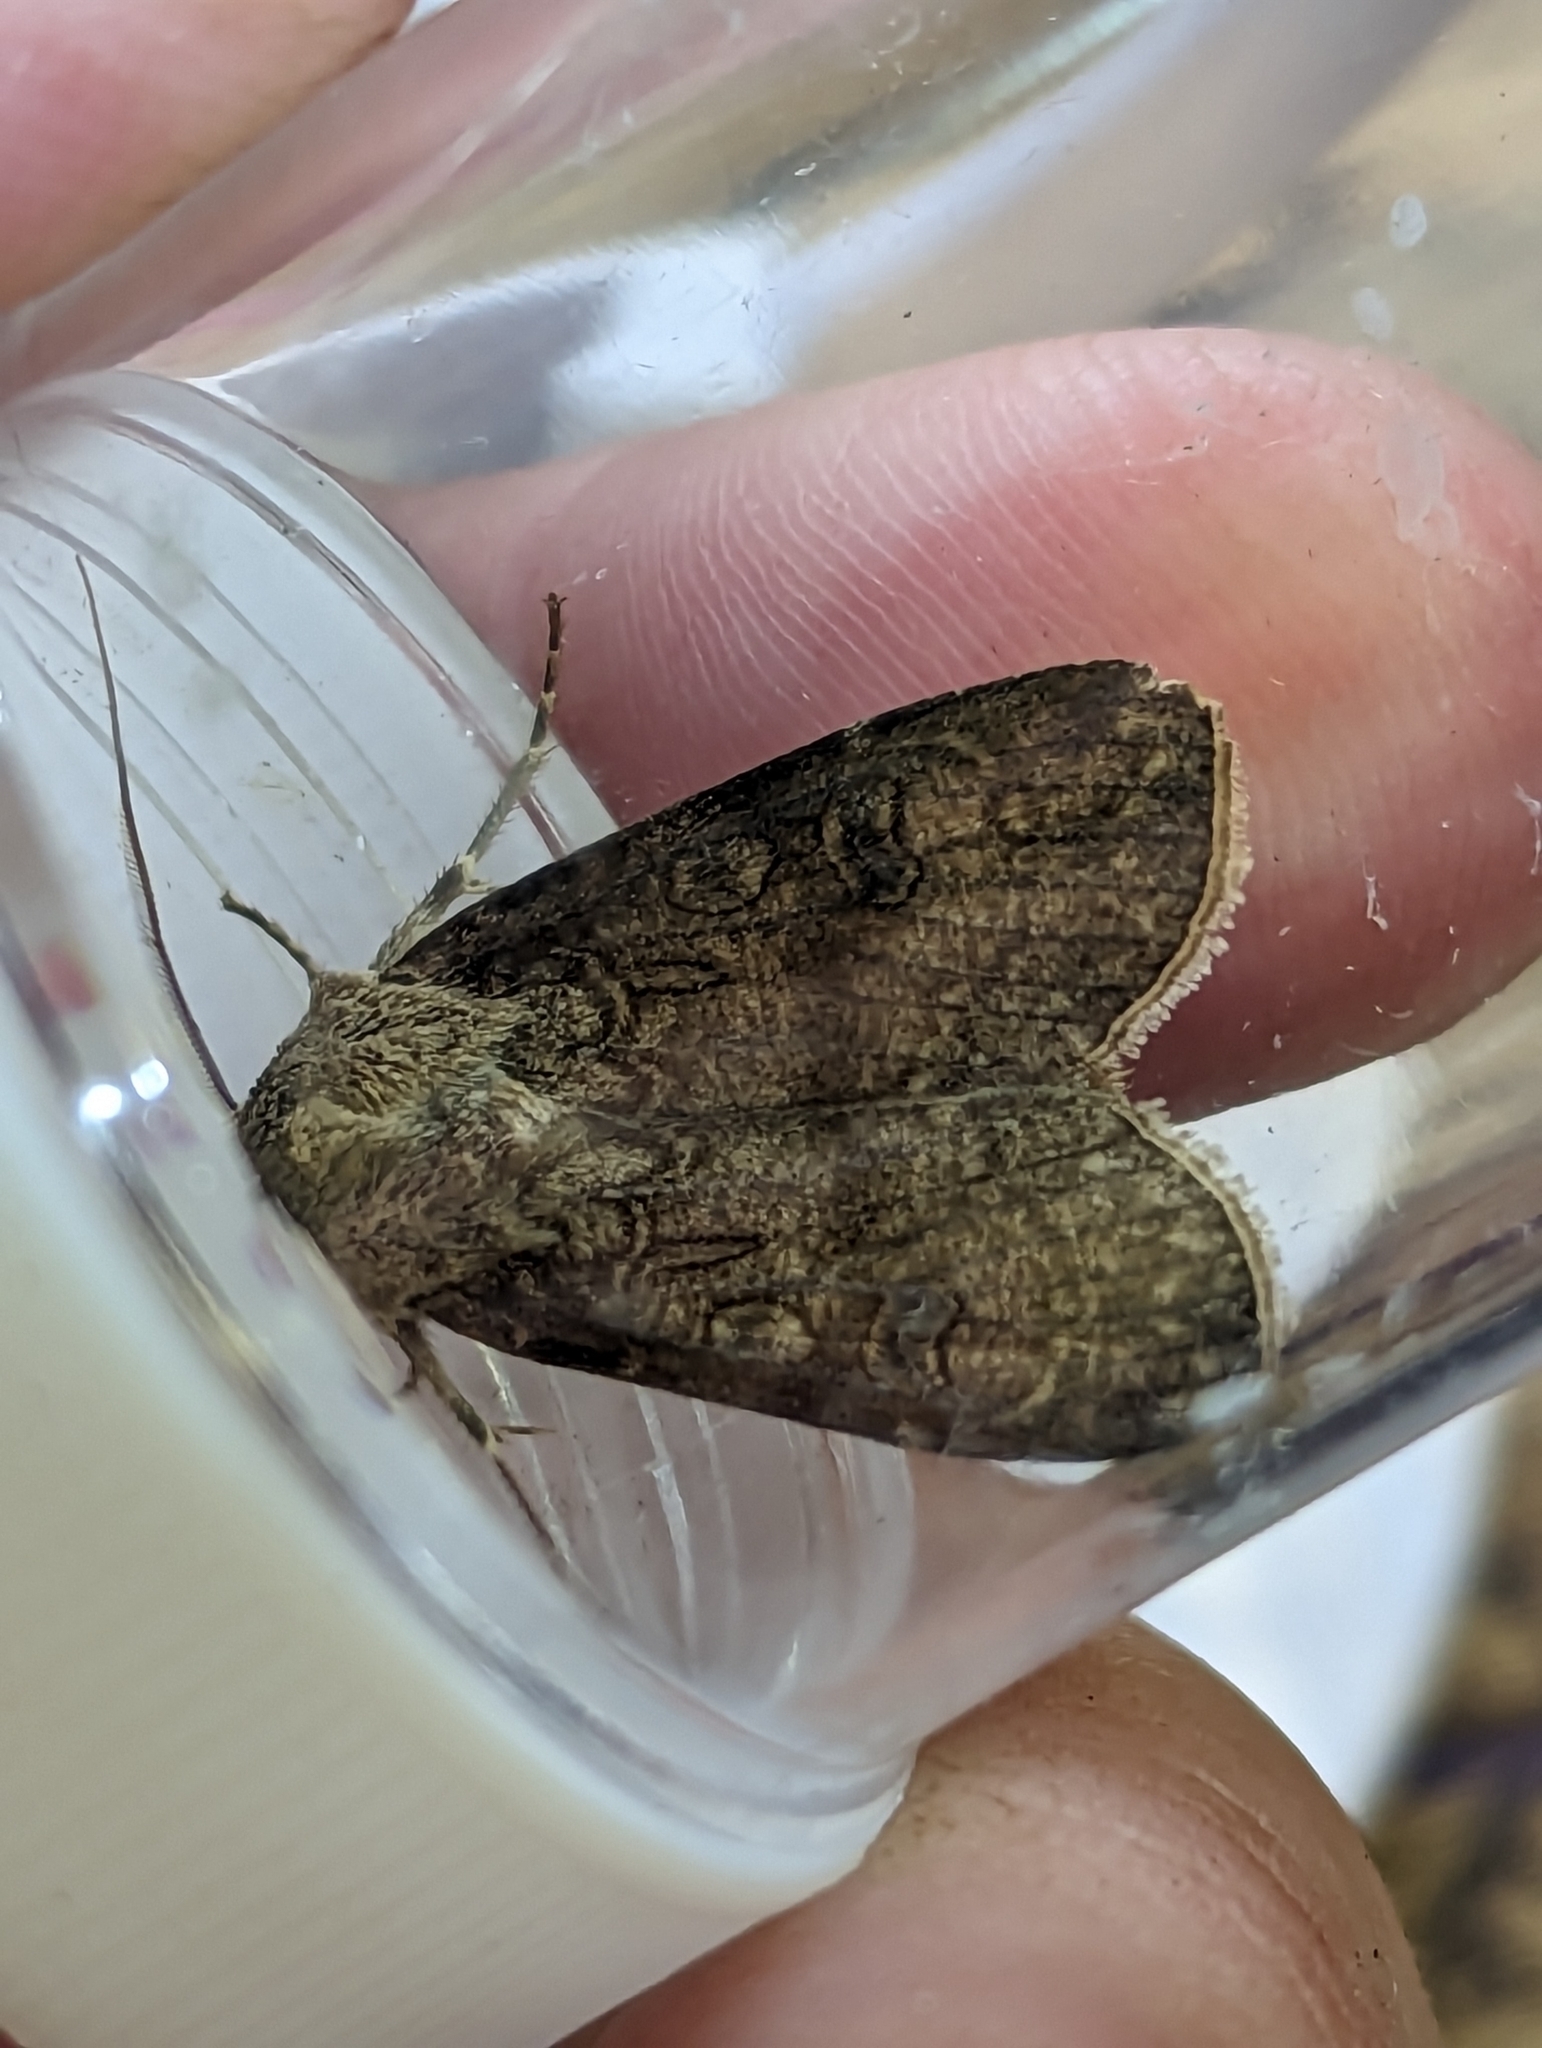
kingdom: Animalia
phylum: Arthropoda
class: Insecta
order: Lepidoptera
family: Noctuidae
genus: Agrotis
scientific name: Agrotis segetum
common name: Turnip moth
